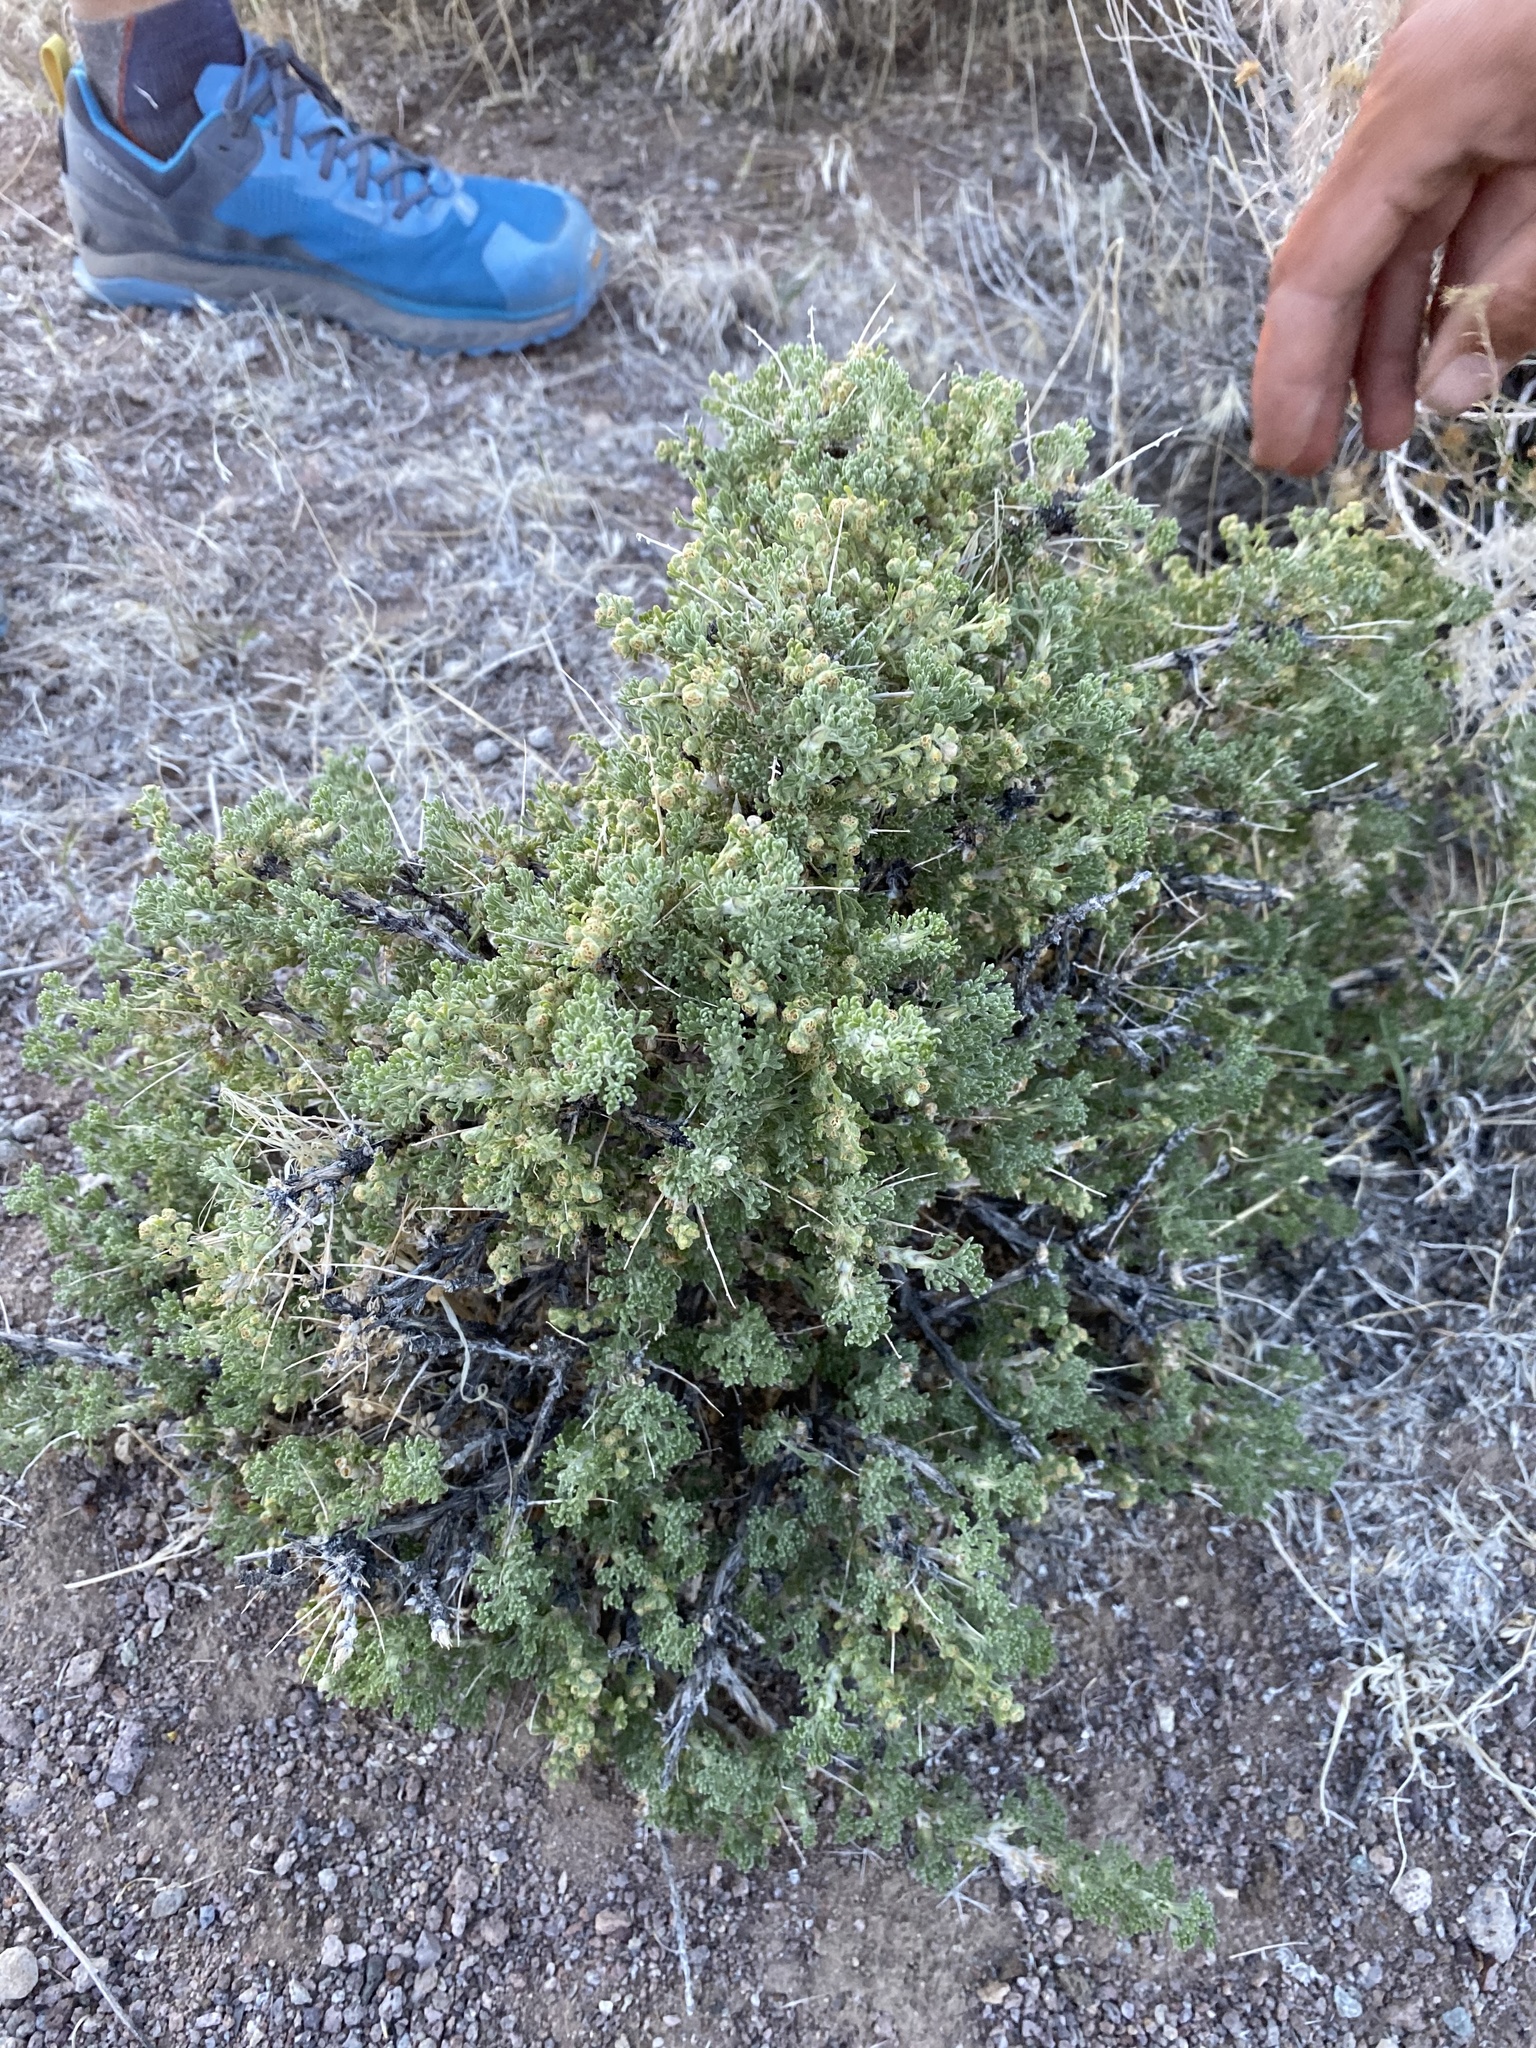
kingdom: Plantae
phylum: Tracheophyta
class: Magnoliopsida
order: Asterales
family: Asteraceae
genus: Artemisia
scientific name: Artemisia spinescens
